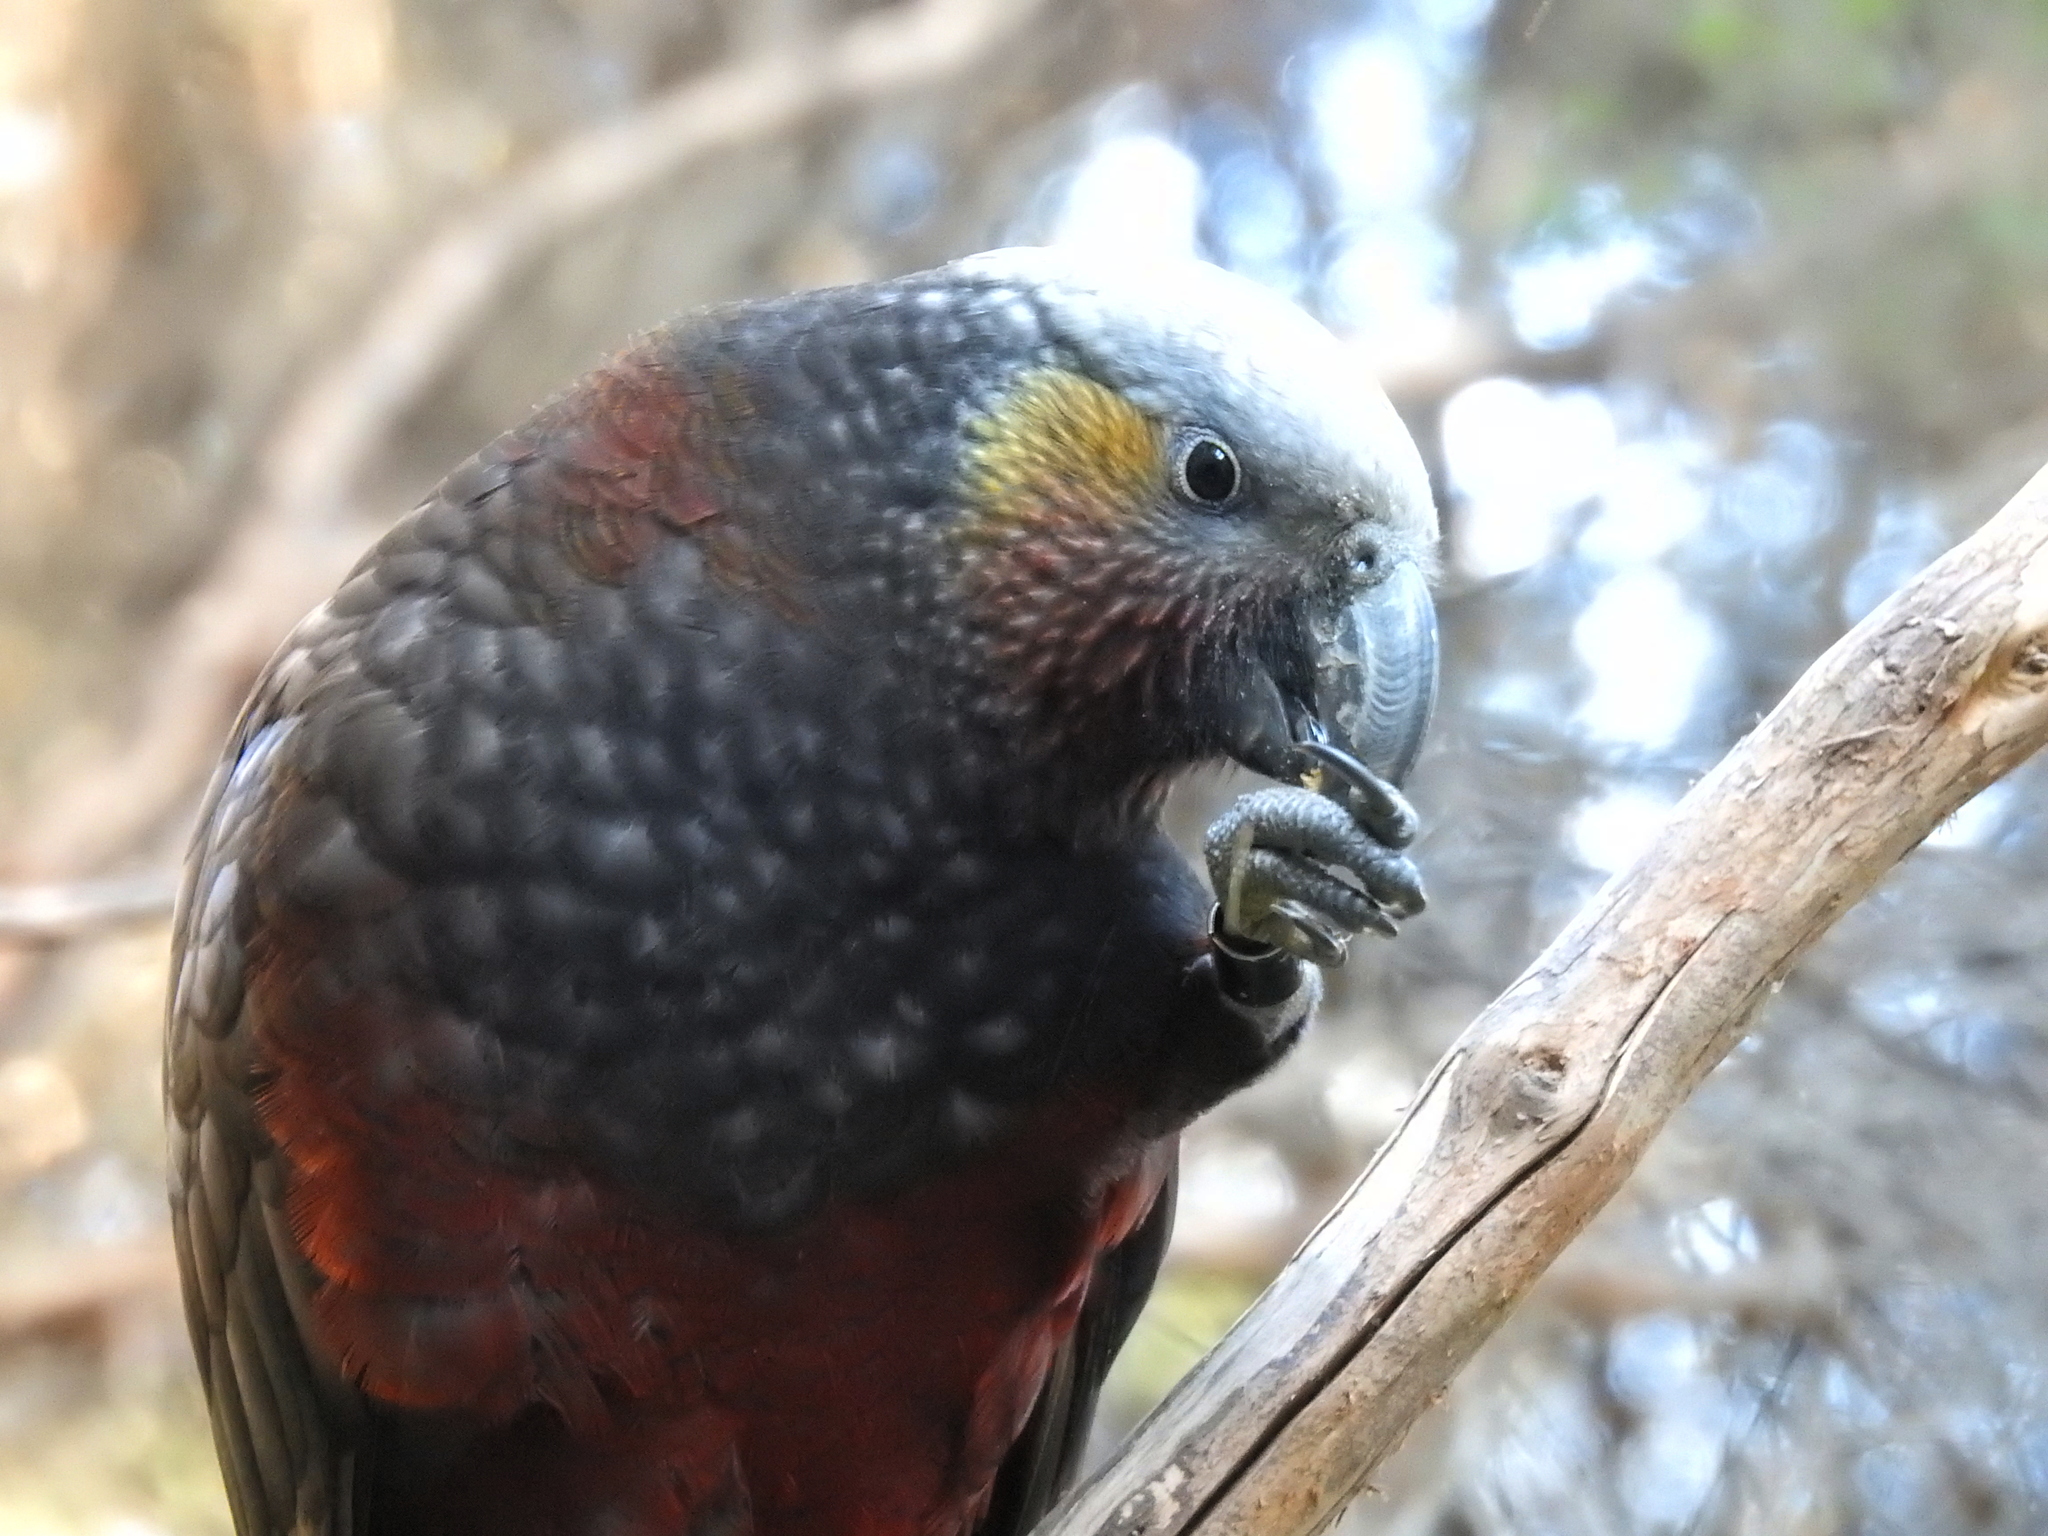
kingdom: Animalia
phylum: Chordata
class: Aves
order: Psittaciformes
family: Psittacidae
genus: Nestor
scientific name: Nestor meridionalis
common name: New zealand kaka
